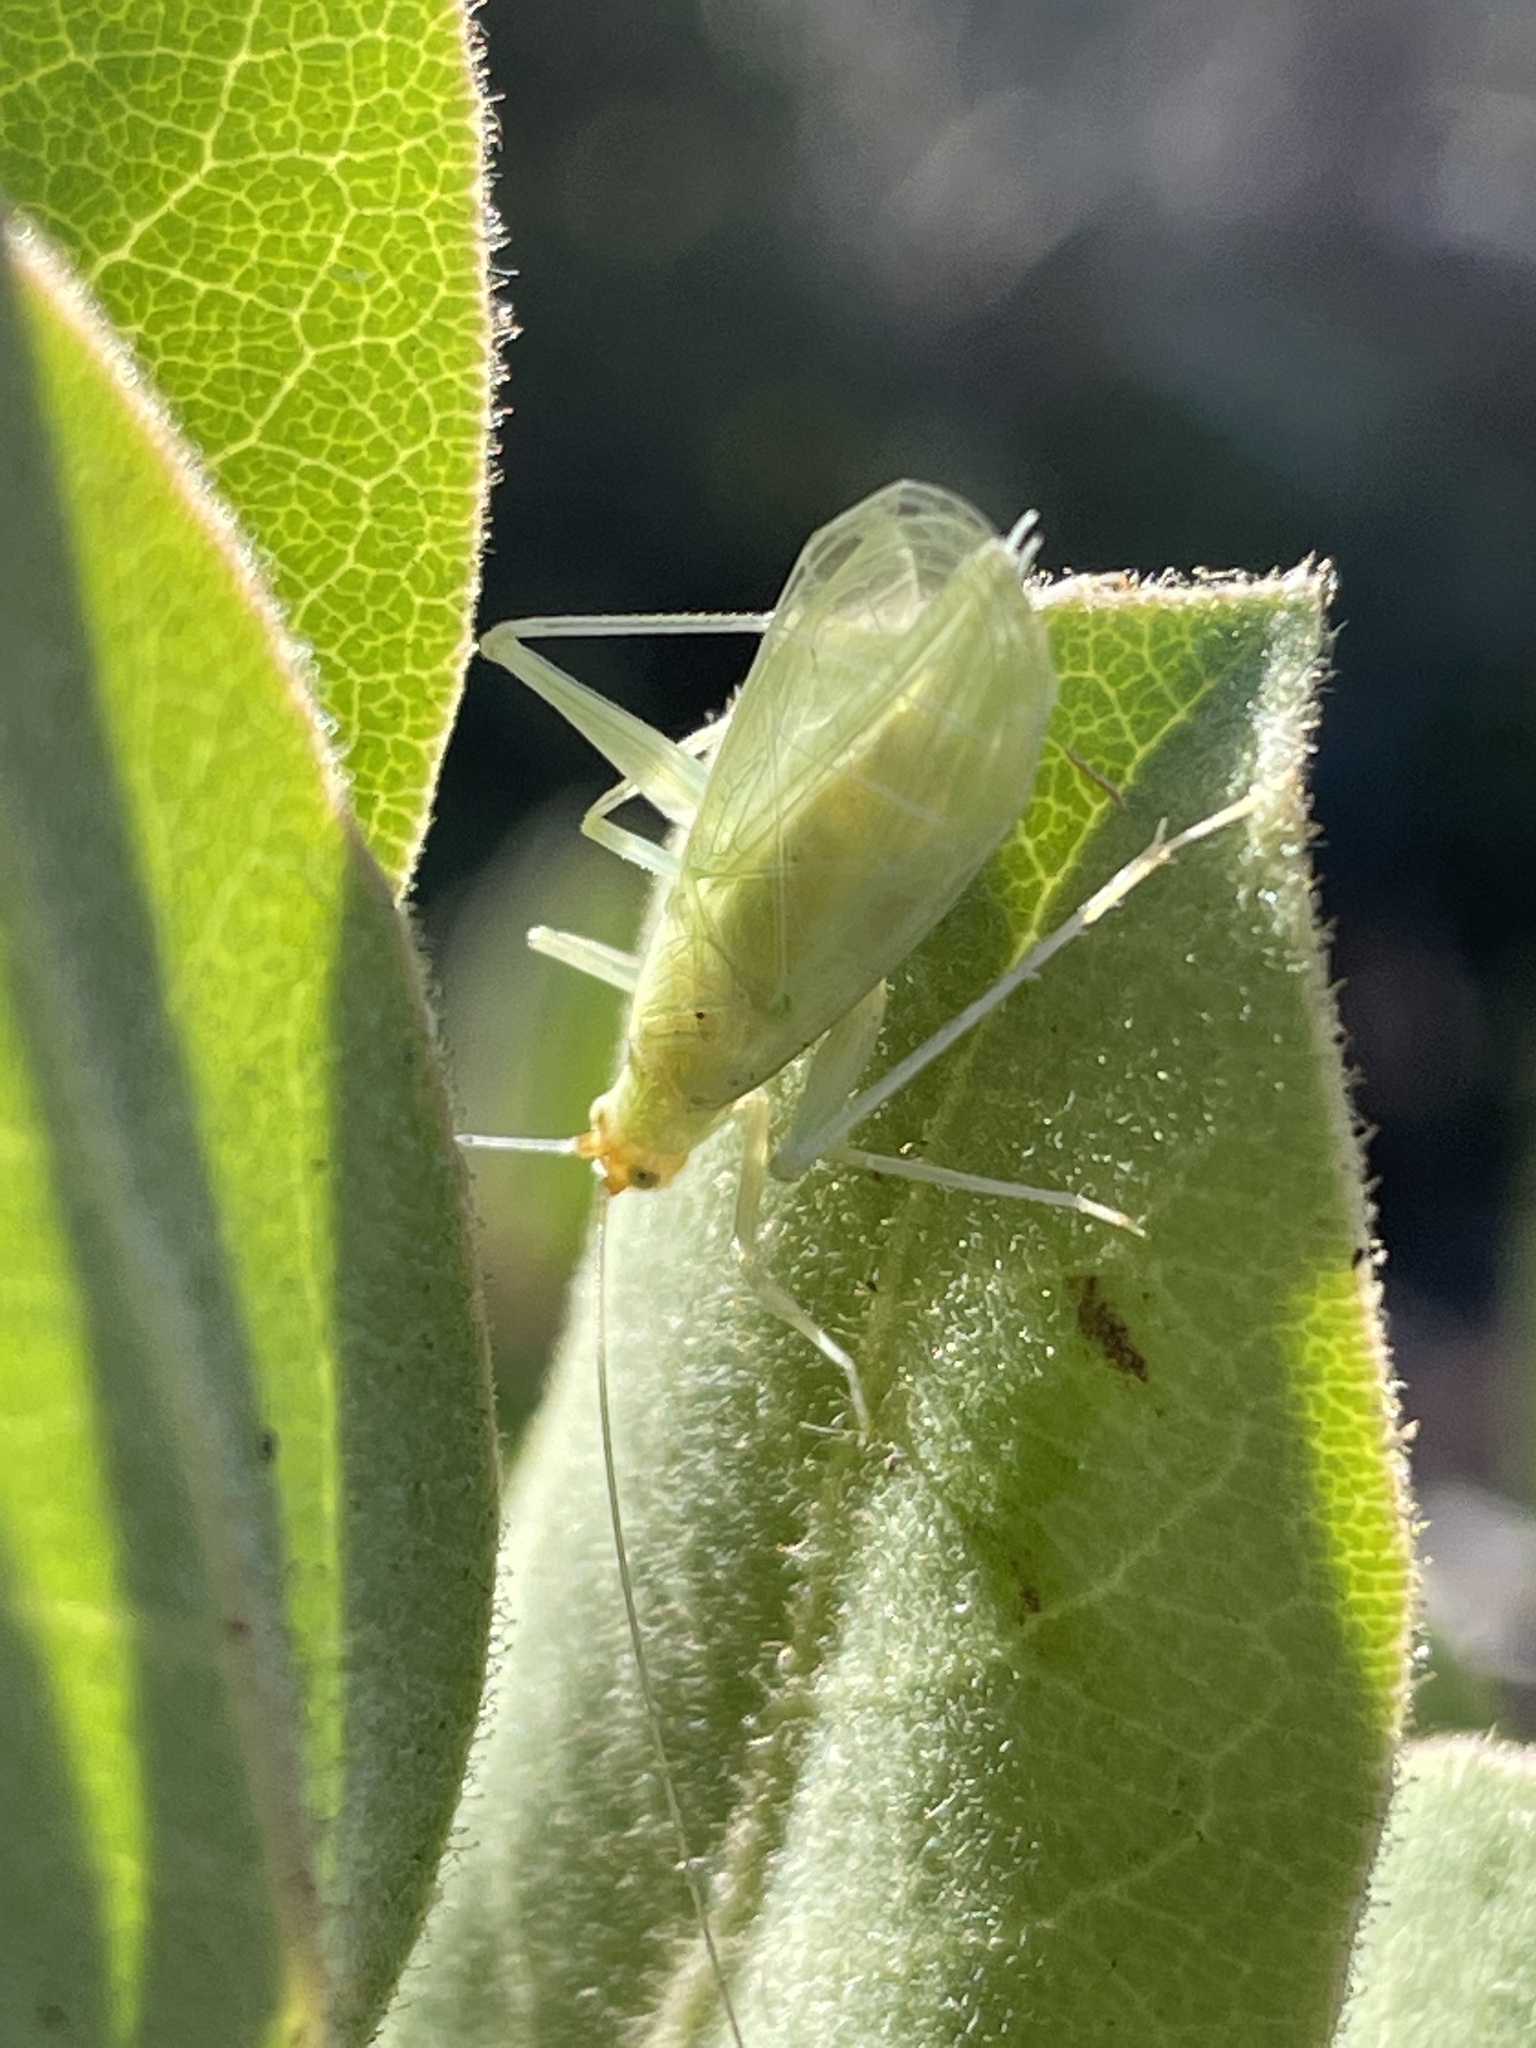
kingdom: Plantae
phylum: Tracheophyta
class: Magnoliopsida
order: Ericales
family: Ericaceae
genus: Arctostaphylos
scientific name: Arctostaphylos glandulosa
